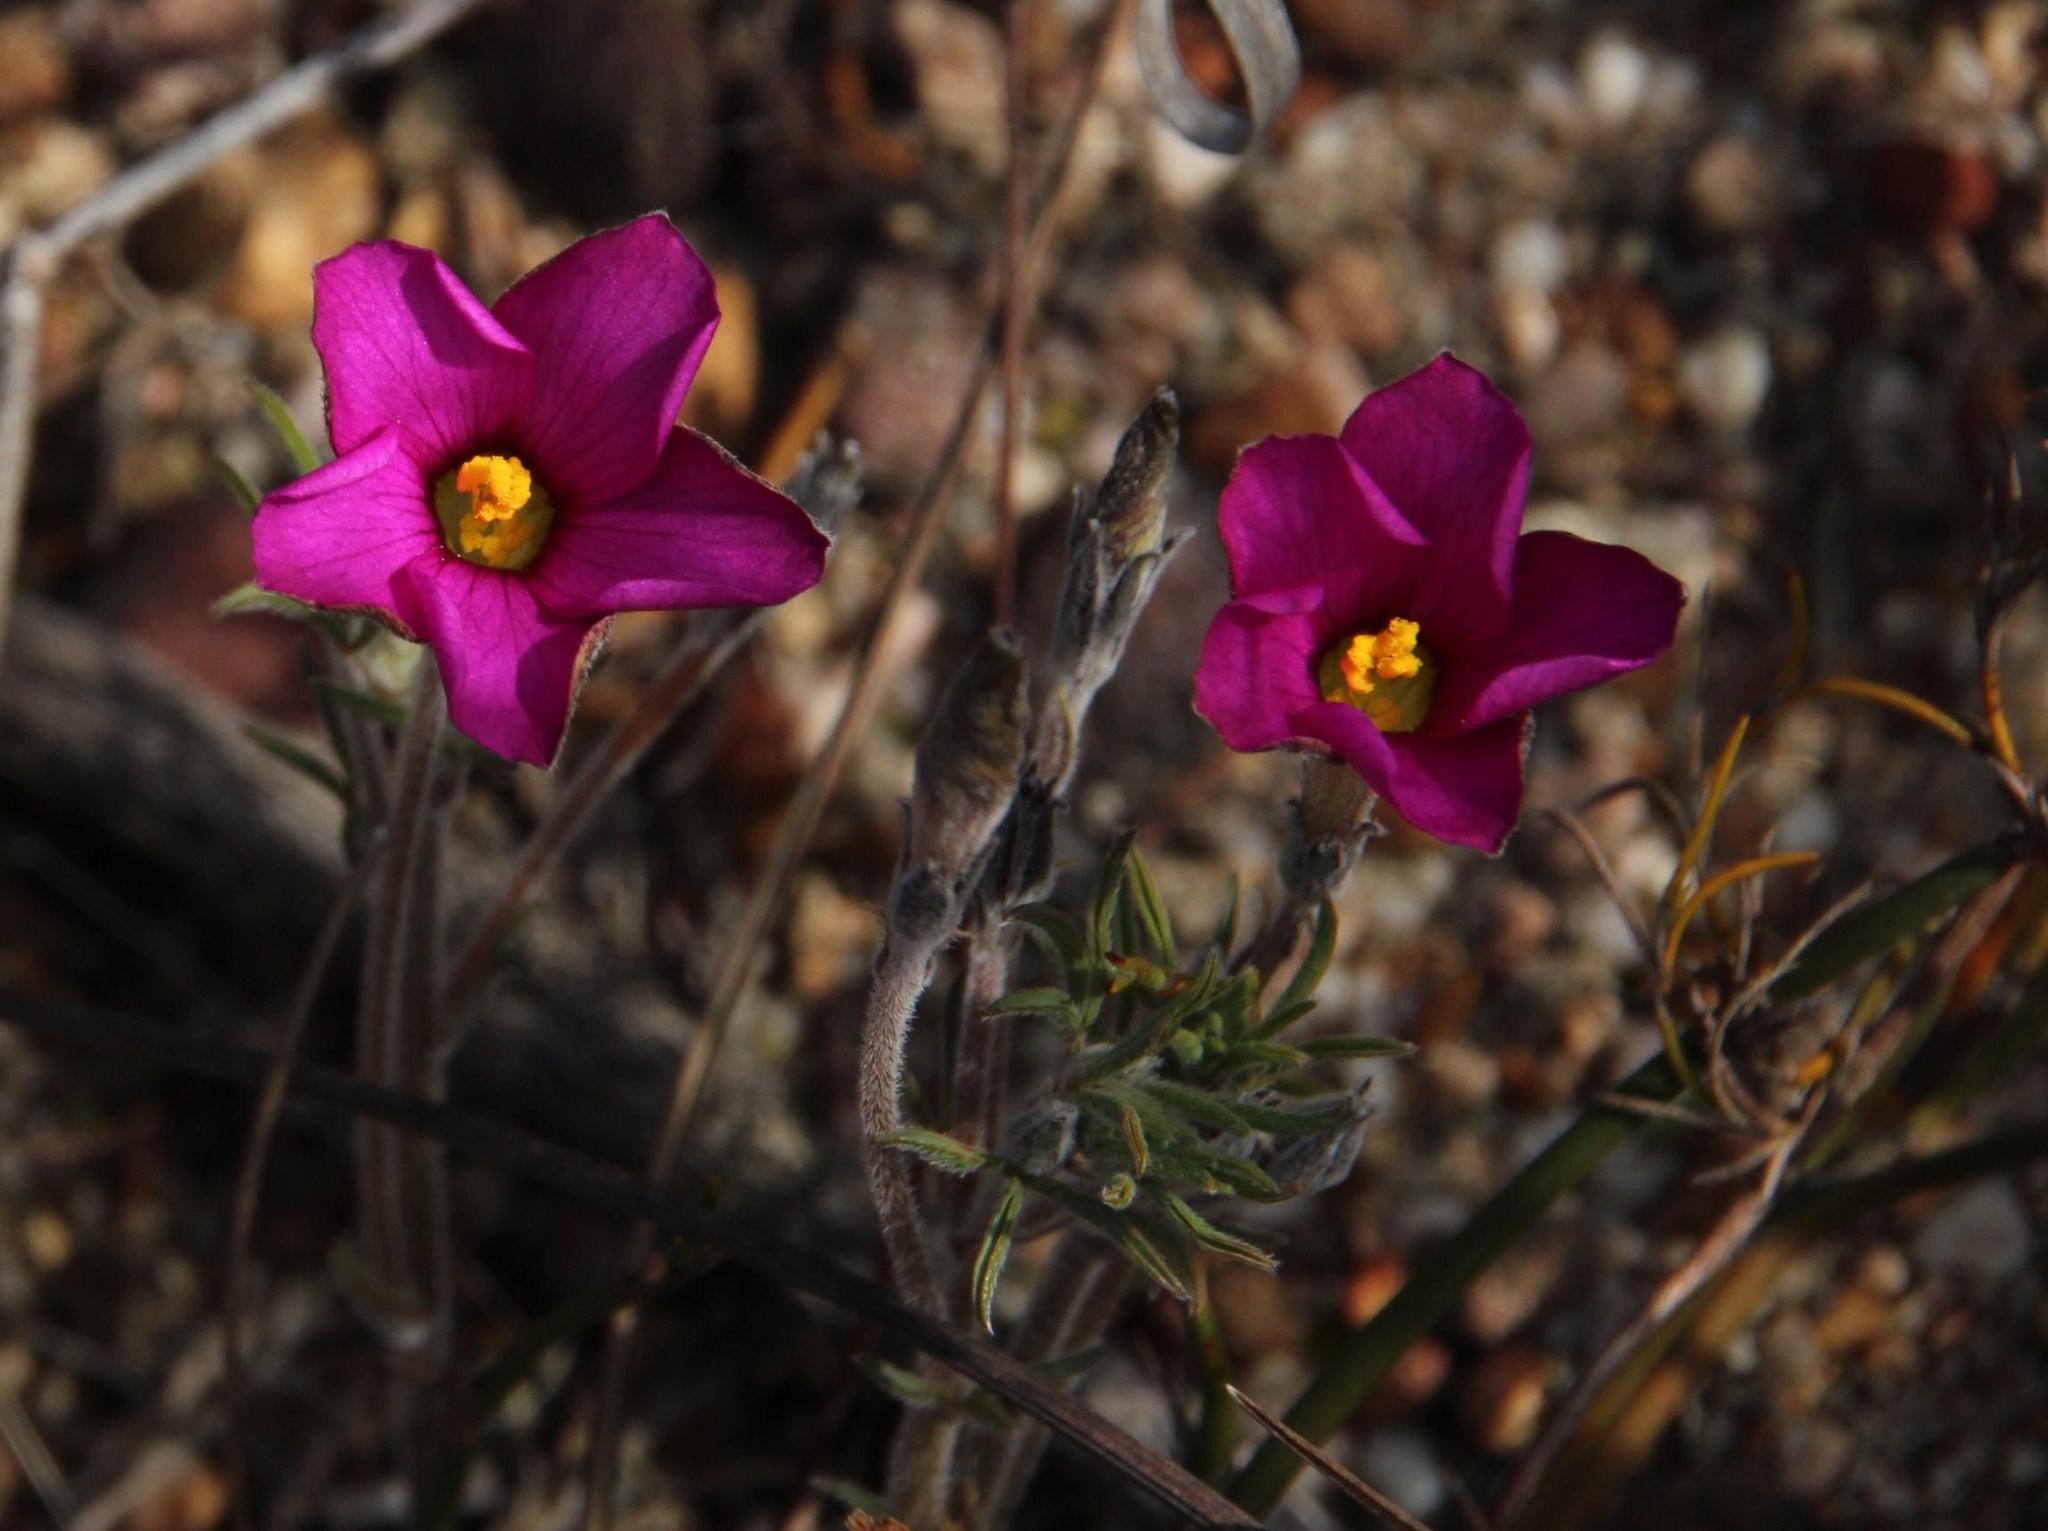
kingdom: Plantae
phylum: Tracheophyta
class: Magnoliopsida
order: Oxalidales
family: Oxalidaceae
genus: Oxalis
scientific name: Oxalis hirta
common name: Tropical woodsorrel
